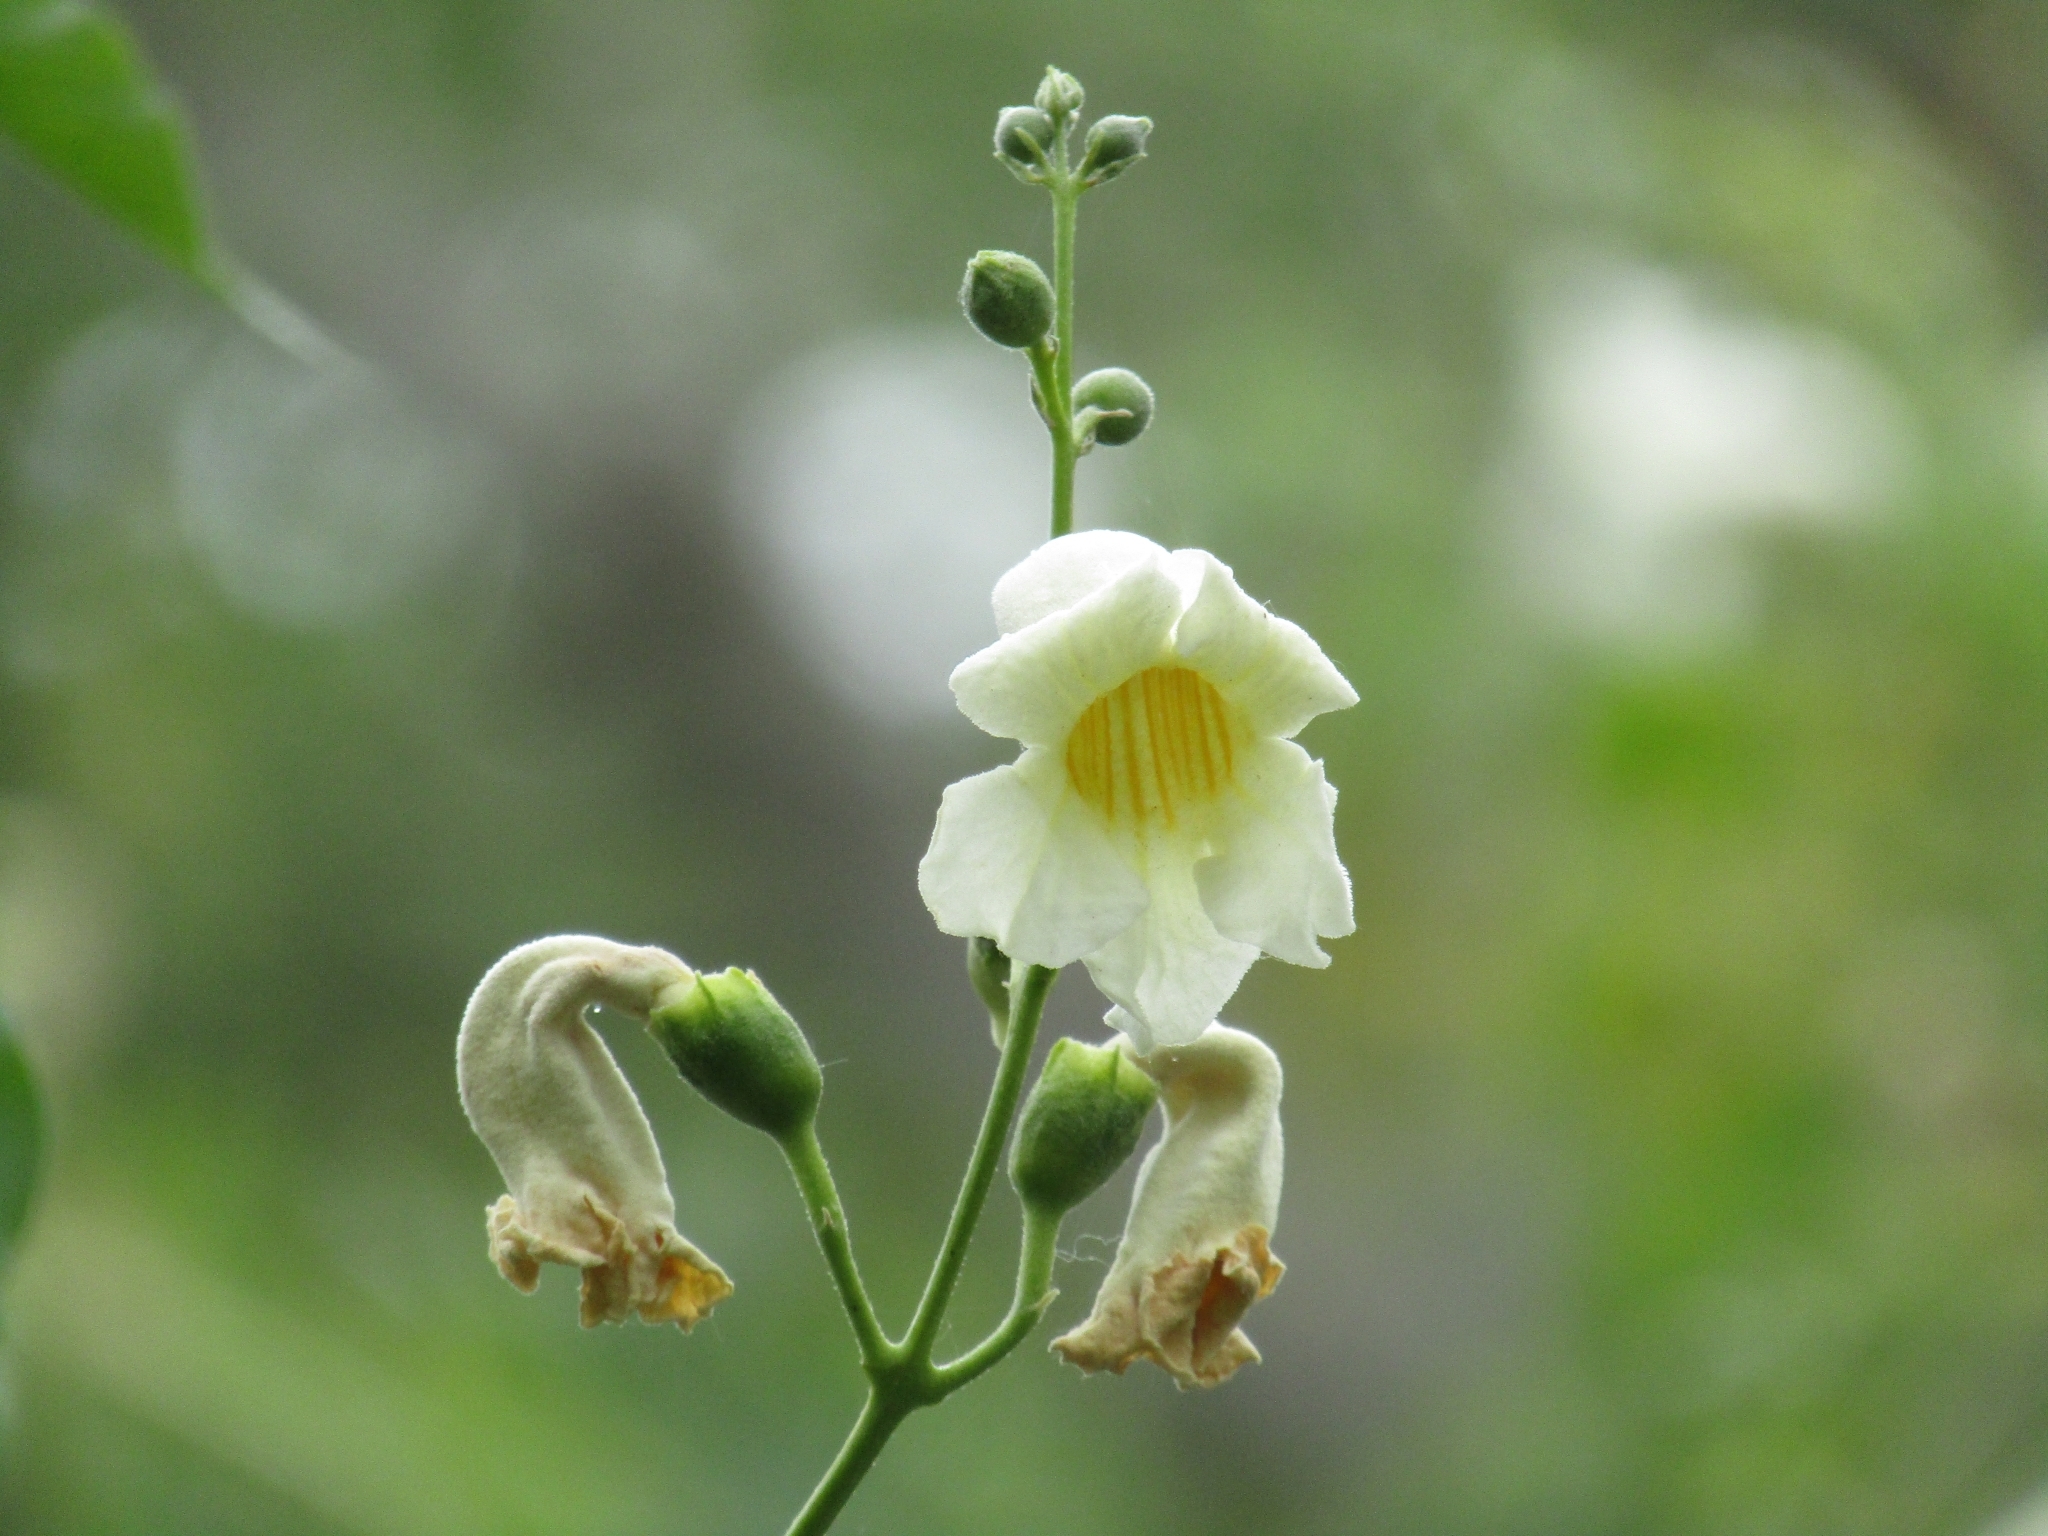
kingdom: Plantae
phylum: Tracheophyta
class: Magnoliopsida
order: Lamiales
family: Bignoniaceae
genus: Amphilophium
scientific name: Amphilophium carolinae
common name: Monkey's-comb
